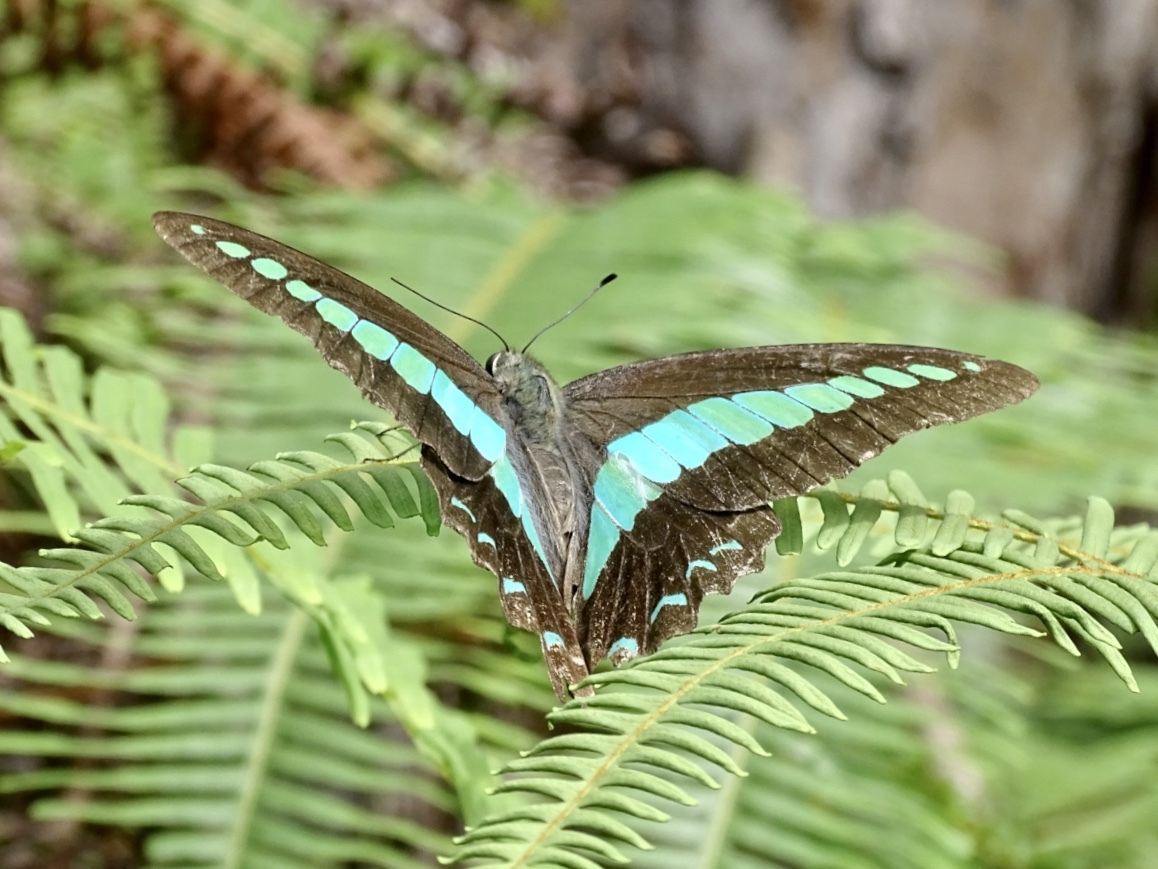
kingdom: Fungi
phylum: Ascomycota
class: Sordariomycetes
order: Microascales
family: Microascaceae
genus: Graphium
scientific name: Graphium sarpedon
